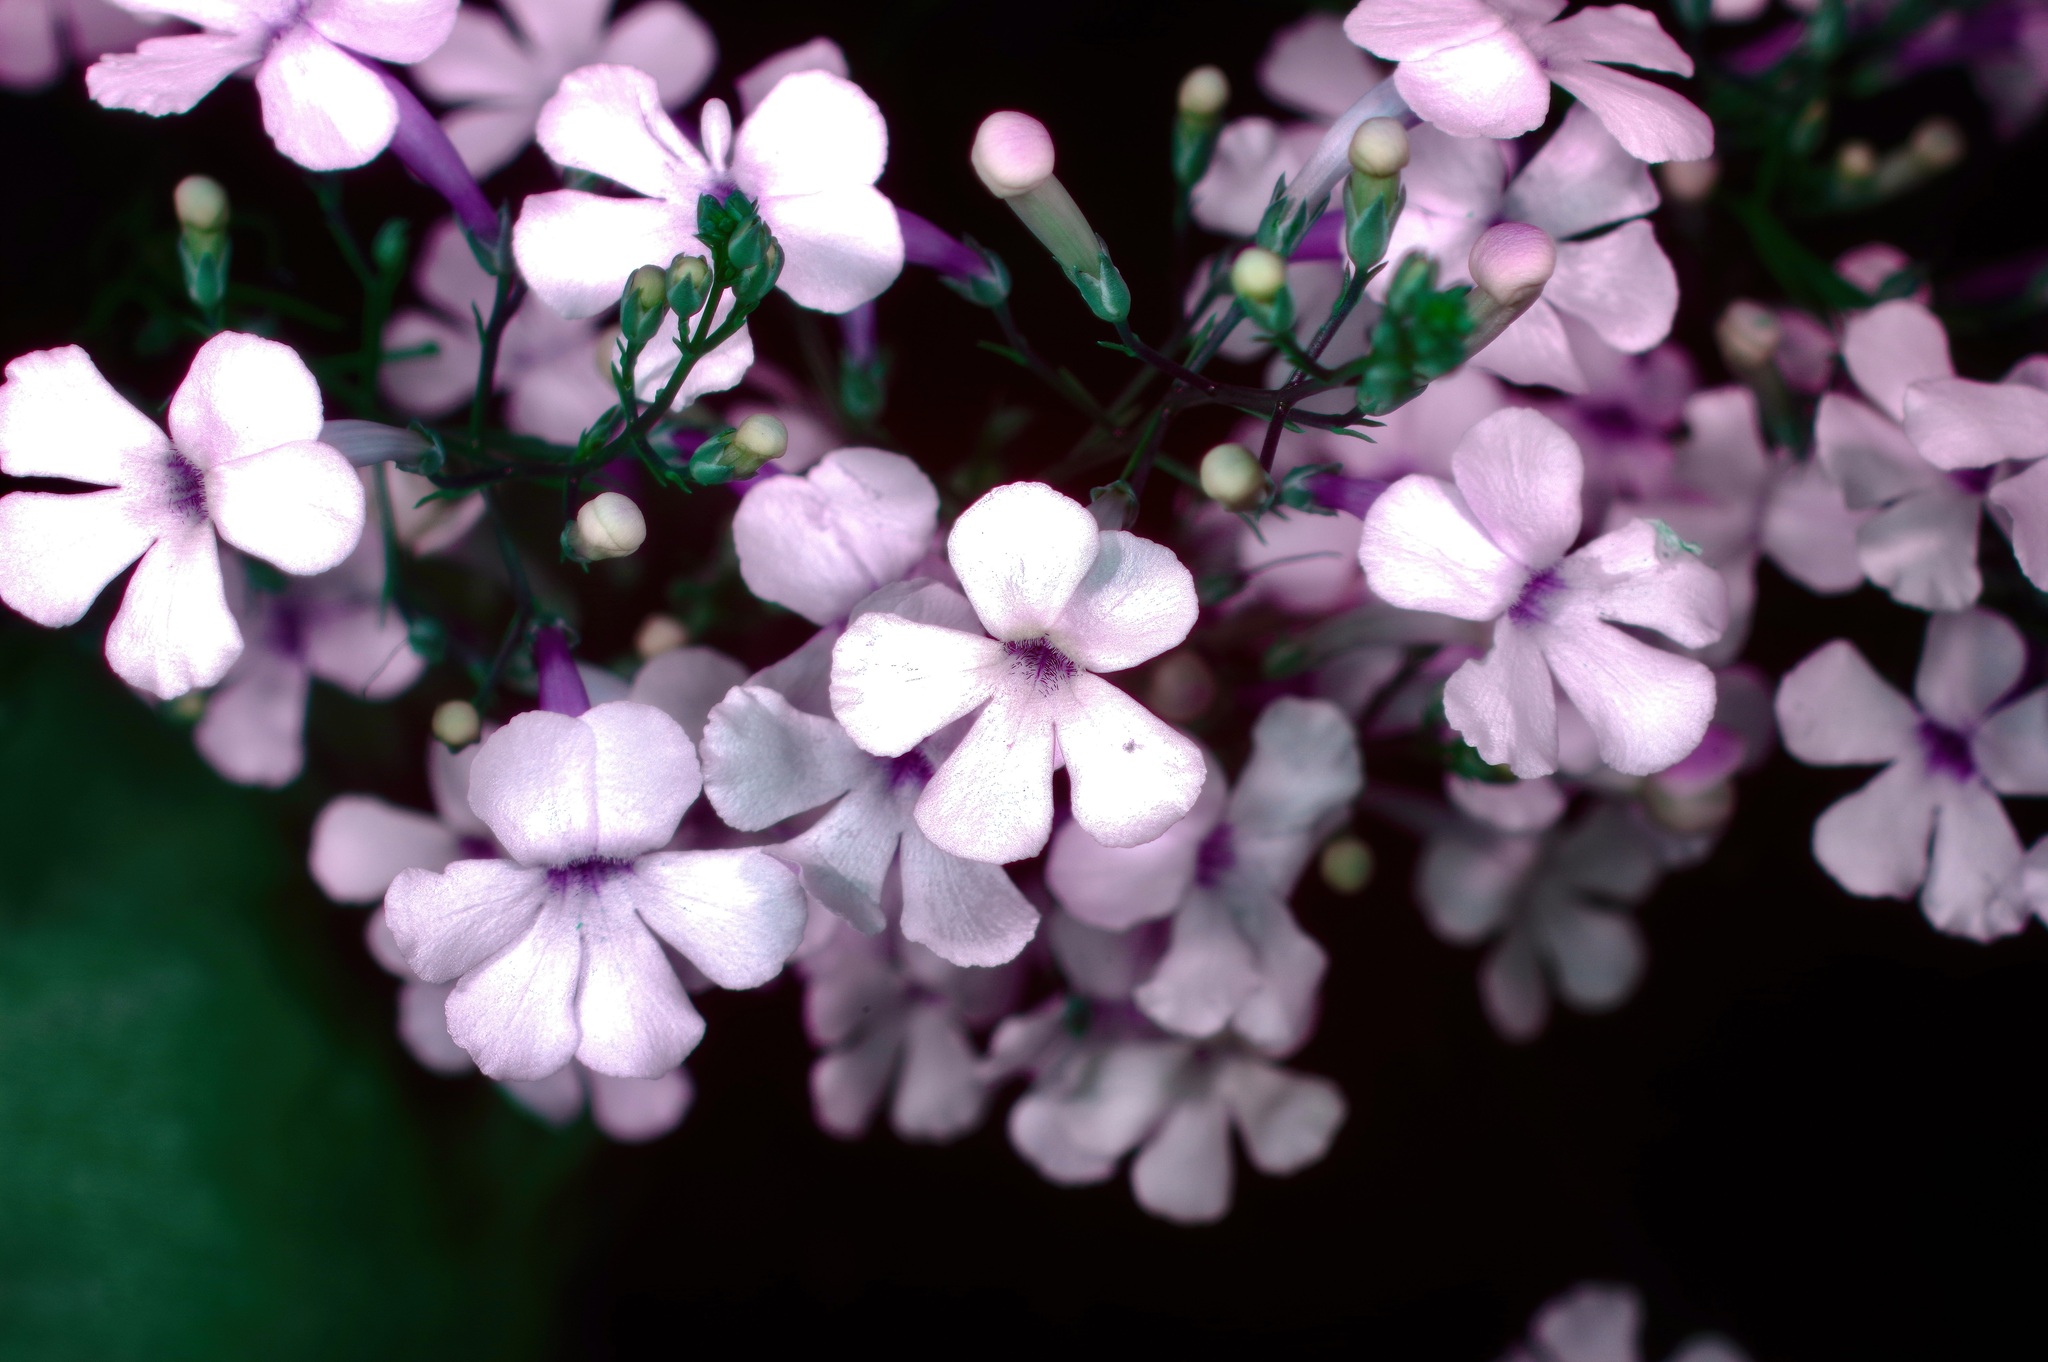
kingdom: Plantae
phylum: Tracheophyta
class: Magnoliopsida
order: Lamiales
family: Plantaginaceae
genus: Penstemon
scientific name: Penstemon ambiguus
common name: Bush penstemon
